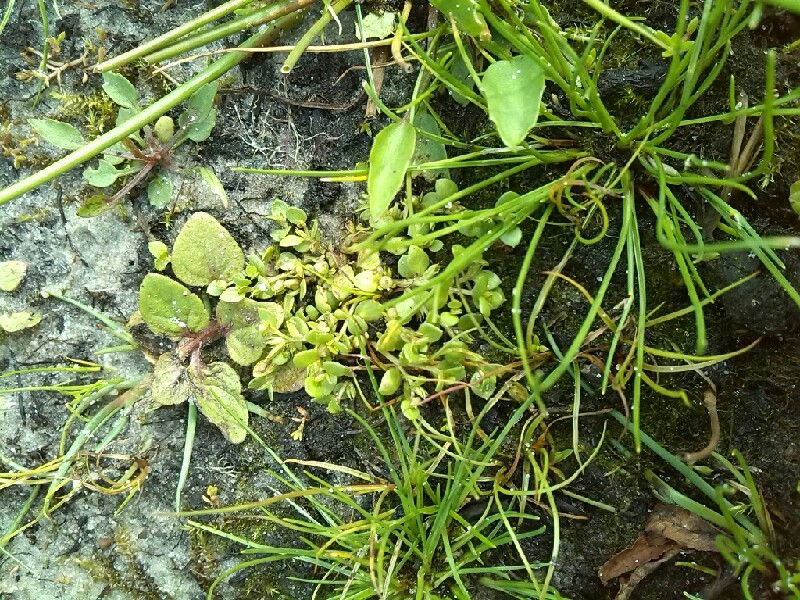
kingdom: Plantae
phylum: Tracheophyta
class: Magnoliopsida
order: Ericales
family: Primulaceae
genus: Lysimachia
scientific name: Lysimachia minima
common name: Chaffweed
